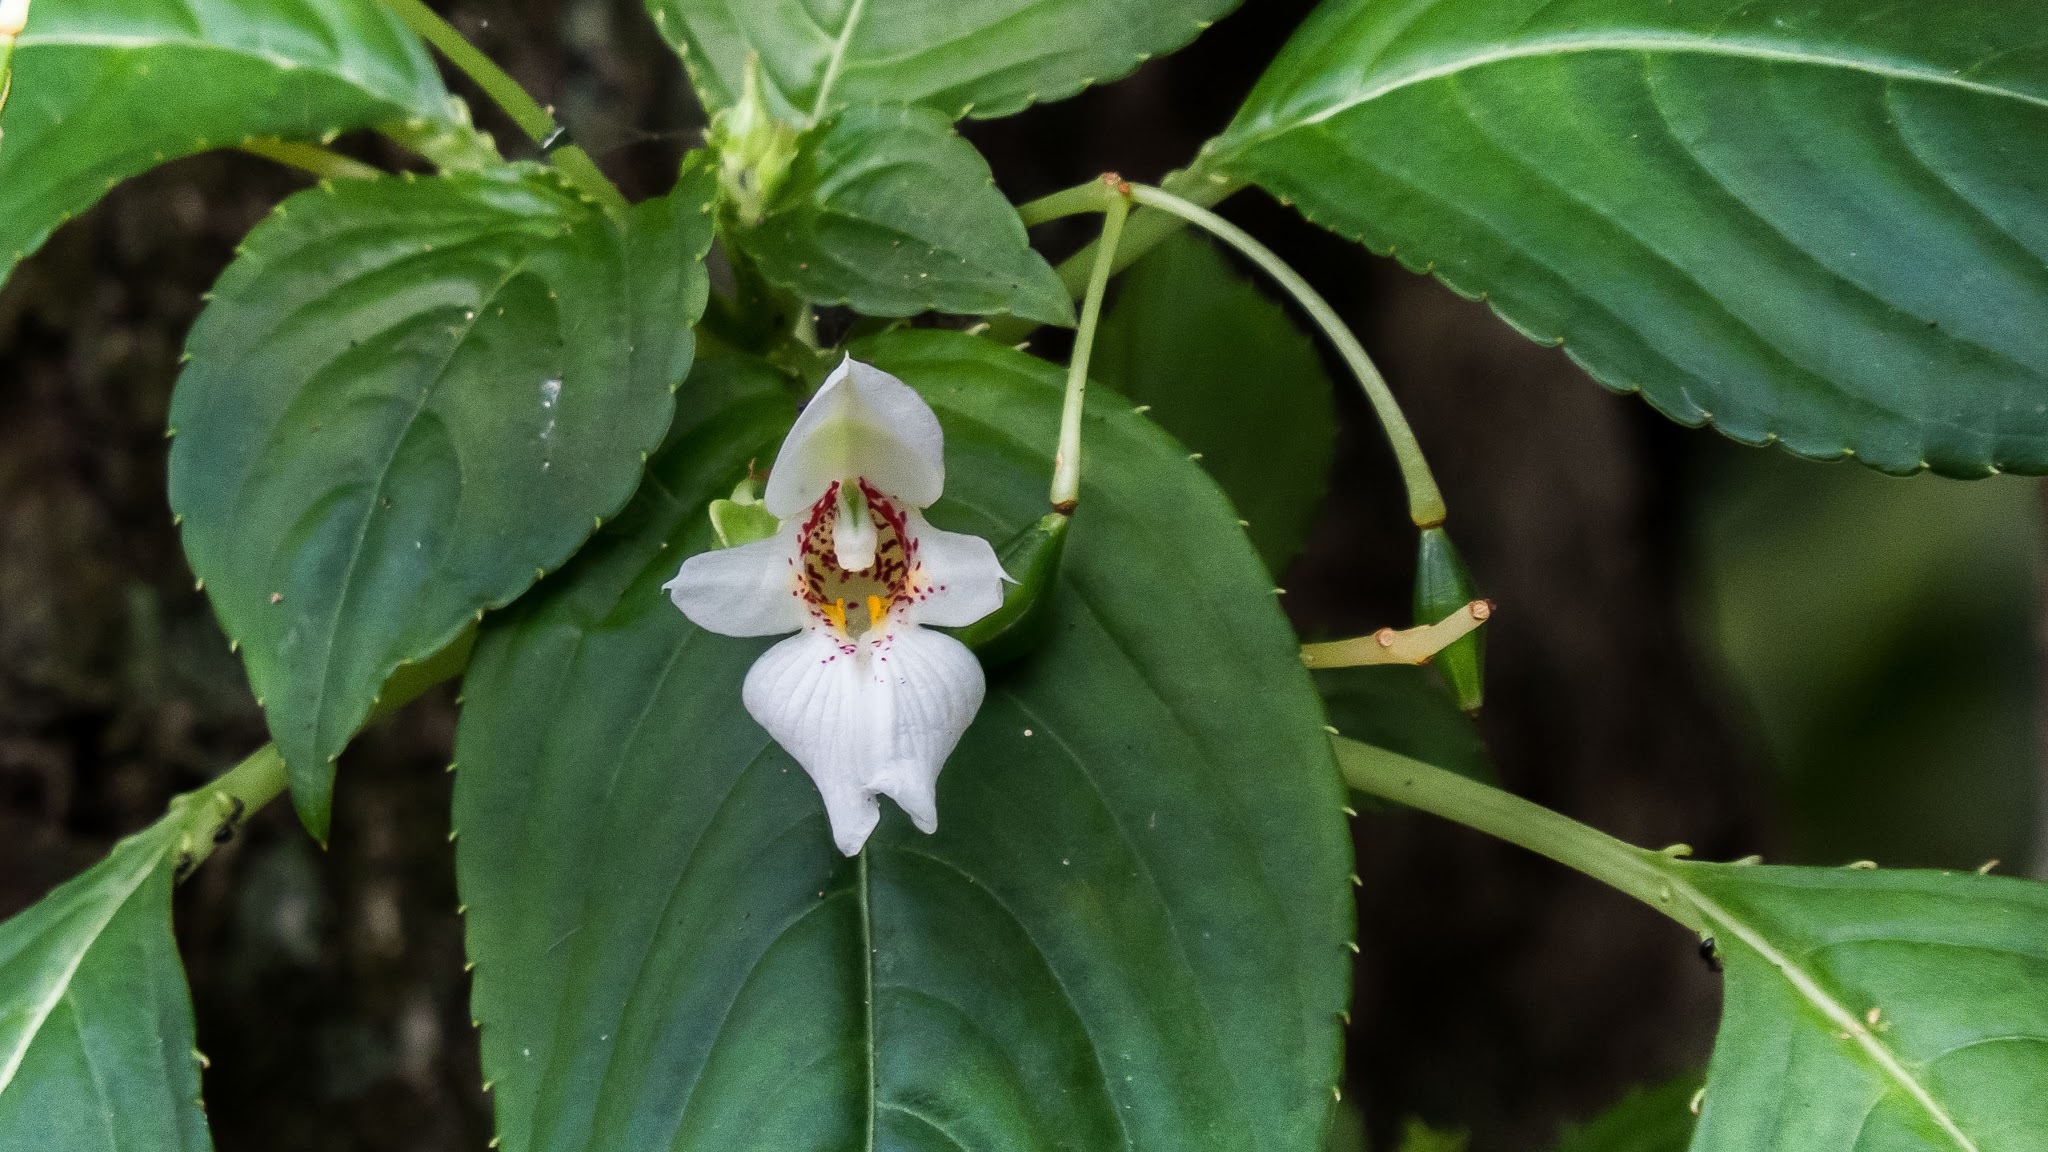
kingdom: Plantae
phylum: Tracheophyta
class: Magnoliopsida
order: Ericales
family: Balsaminaceae
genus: Impatiens
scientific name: Impatiens campanulata
